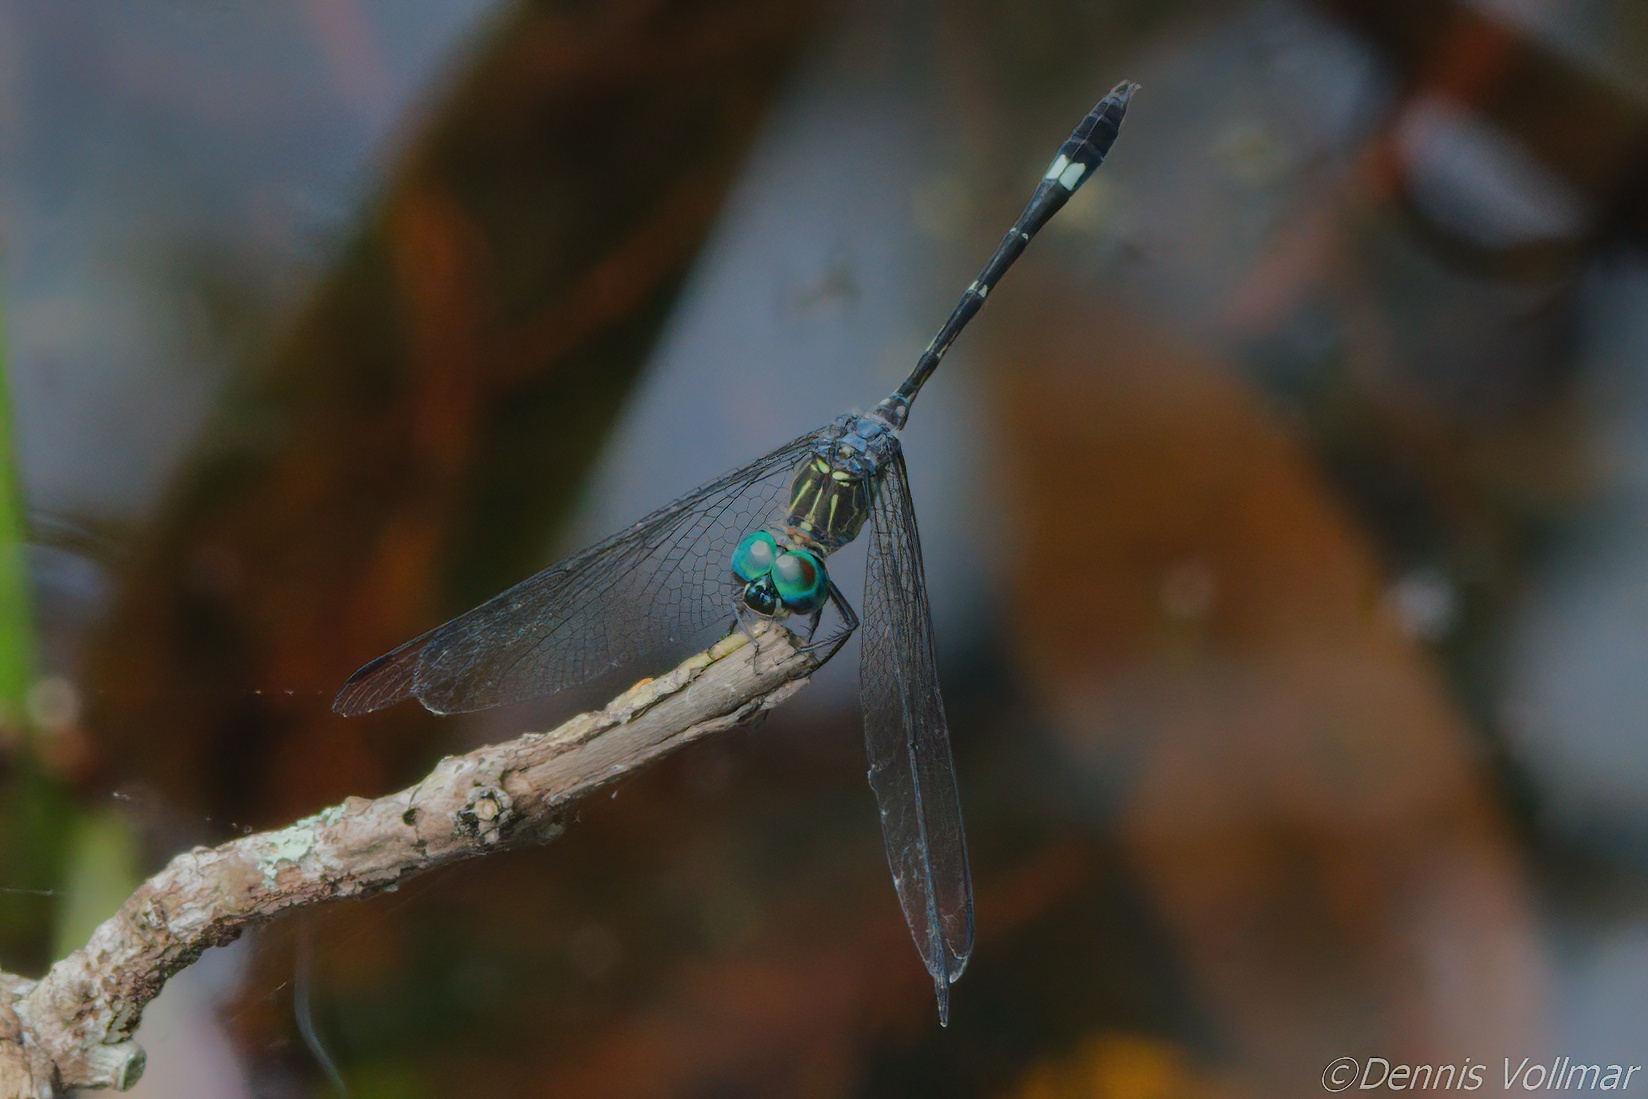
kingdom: Animalia
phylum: Arthropoda
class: Insecta
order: Odonata
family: Libellulidae
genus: Micrathyria
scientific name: Micrathyria didyma
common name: Three-striped dasher
